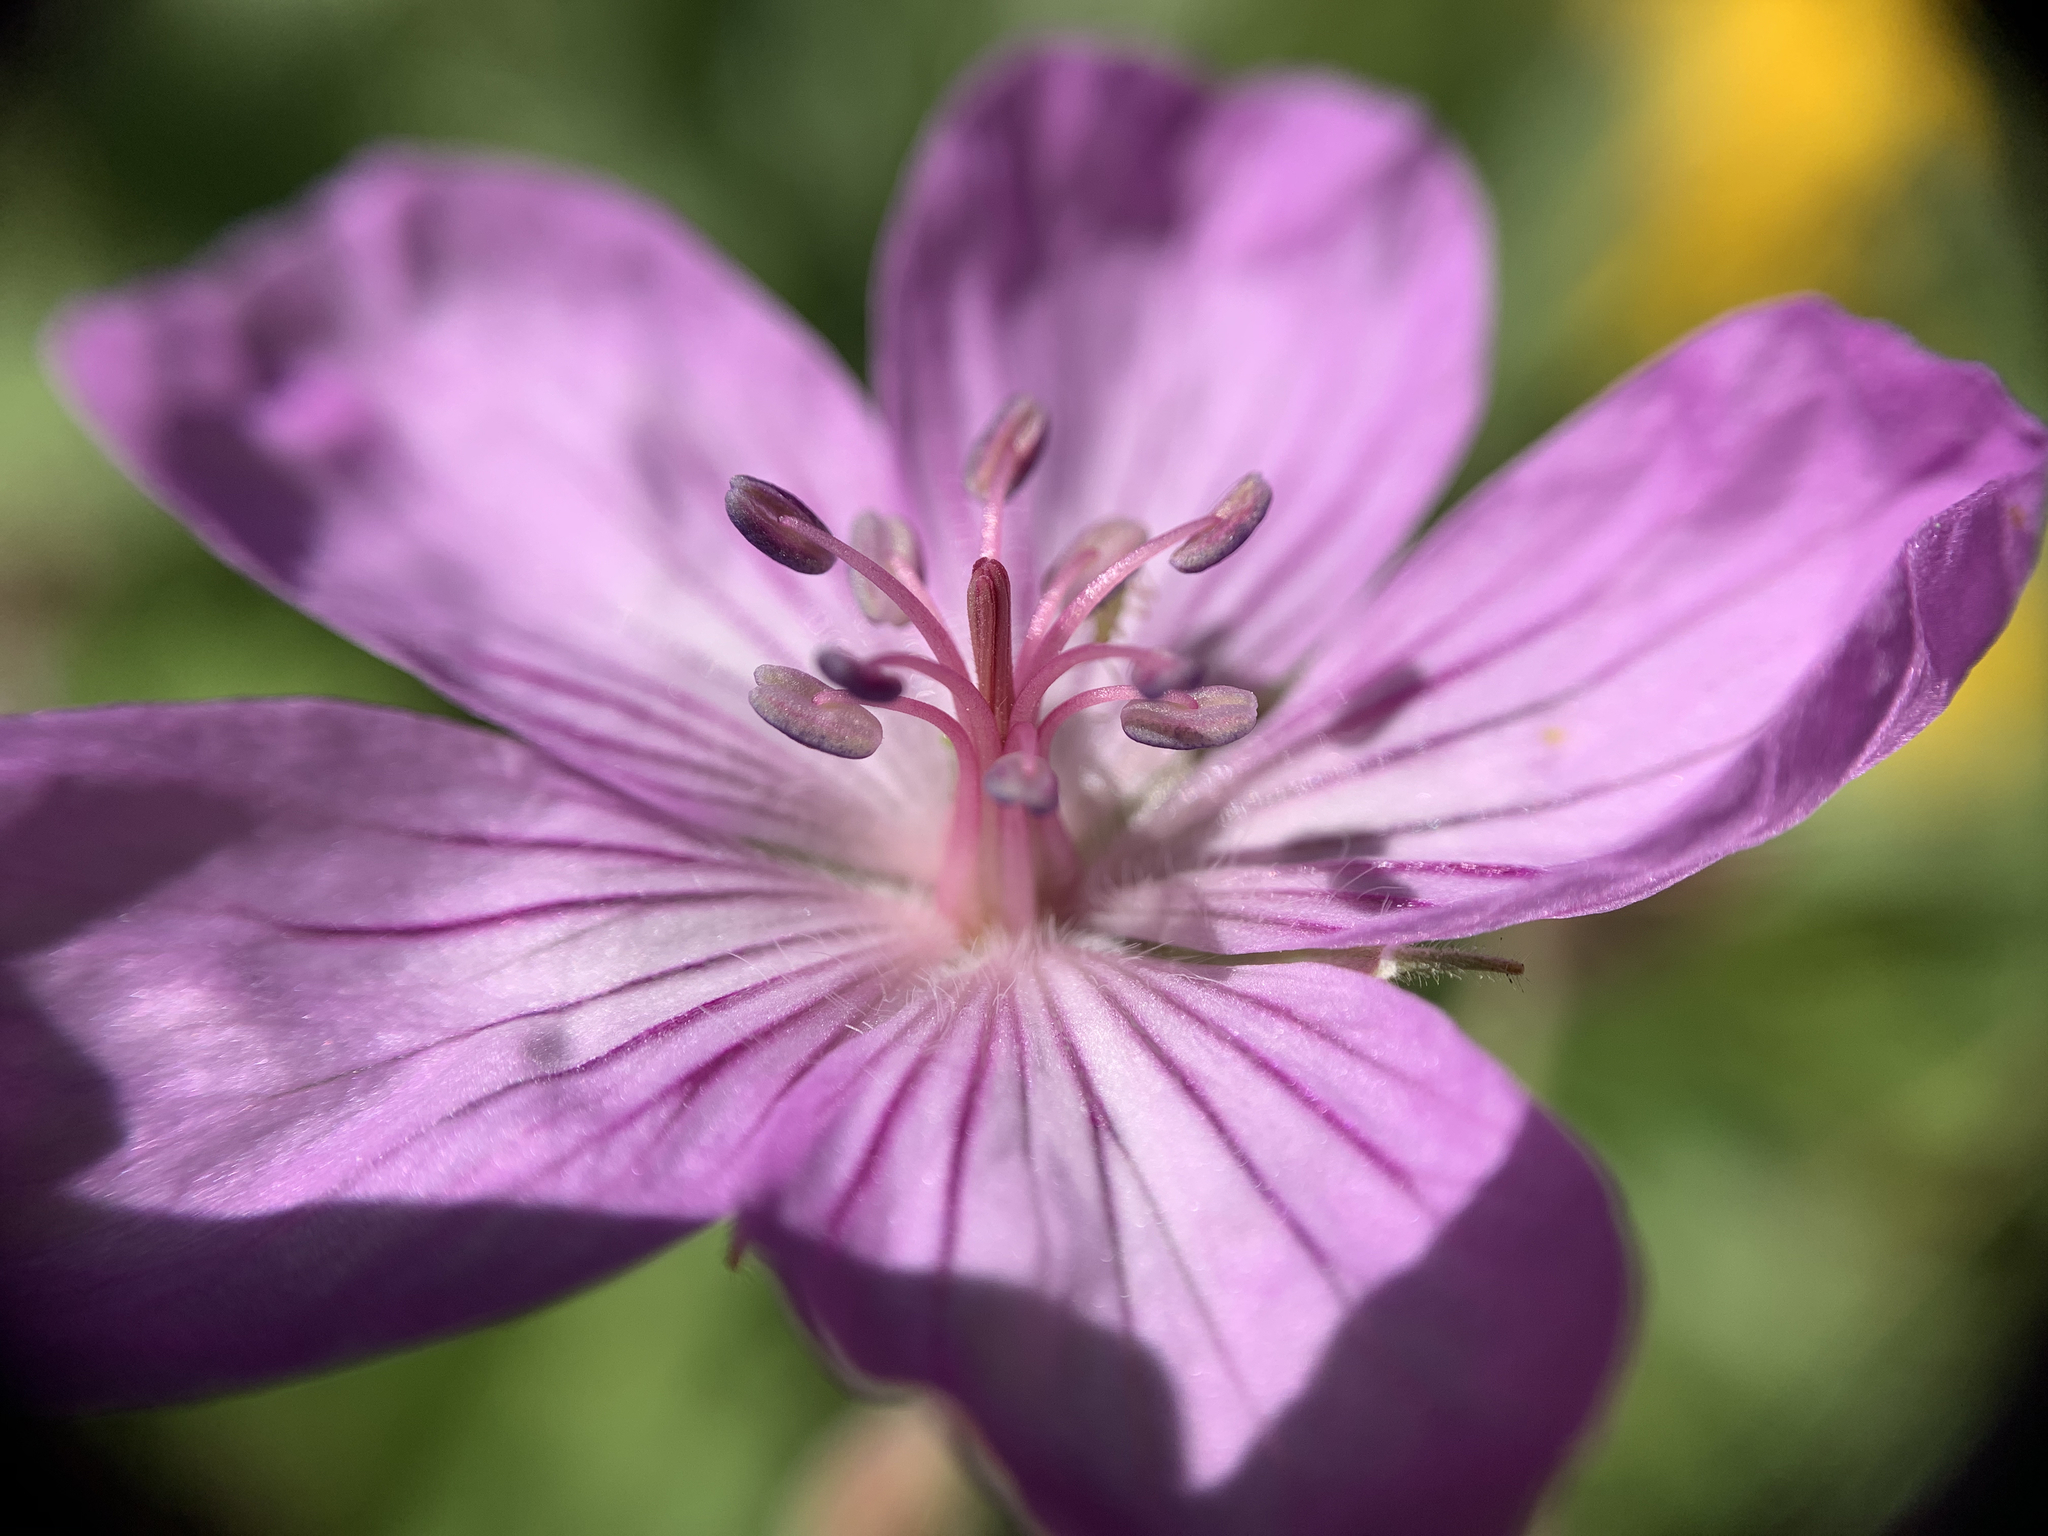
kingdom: Plantae
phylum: Tracheophyta
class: Magnoliopsida
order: Geraniales
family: Geraniaceae
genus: Geranium
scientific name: Geranium viscosissimum
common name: Purple geranium
